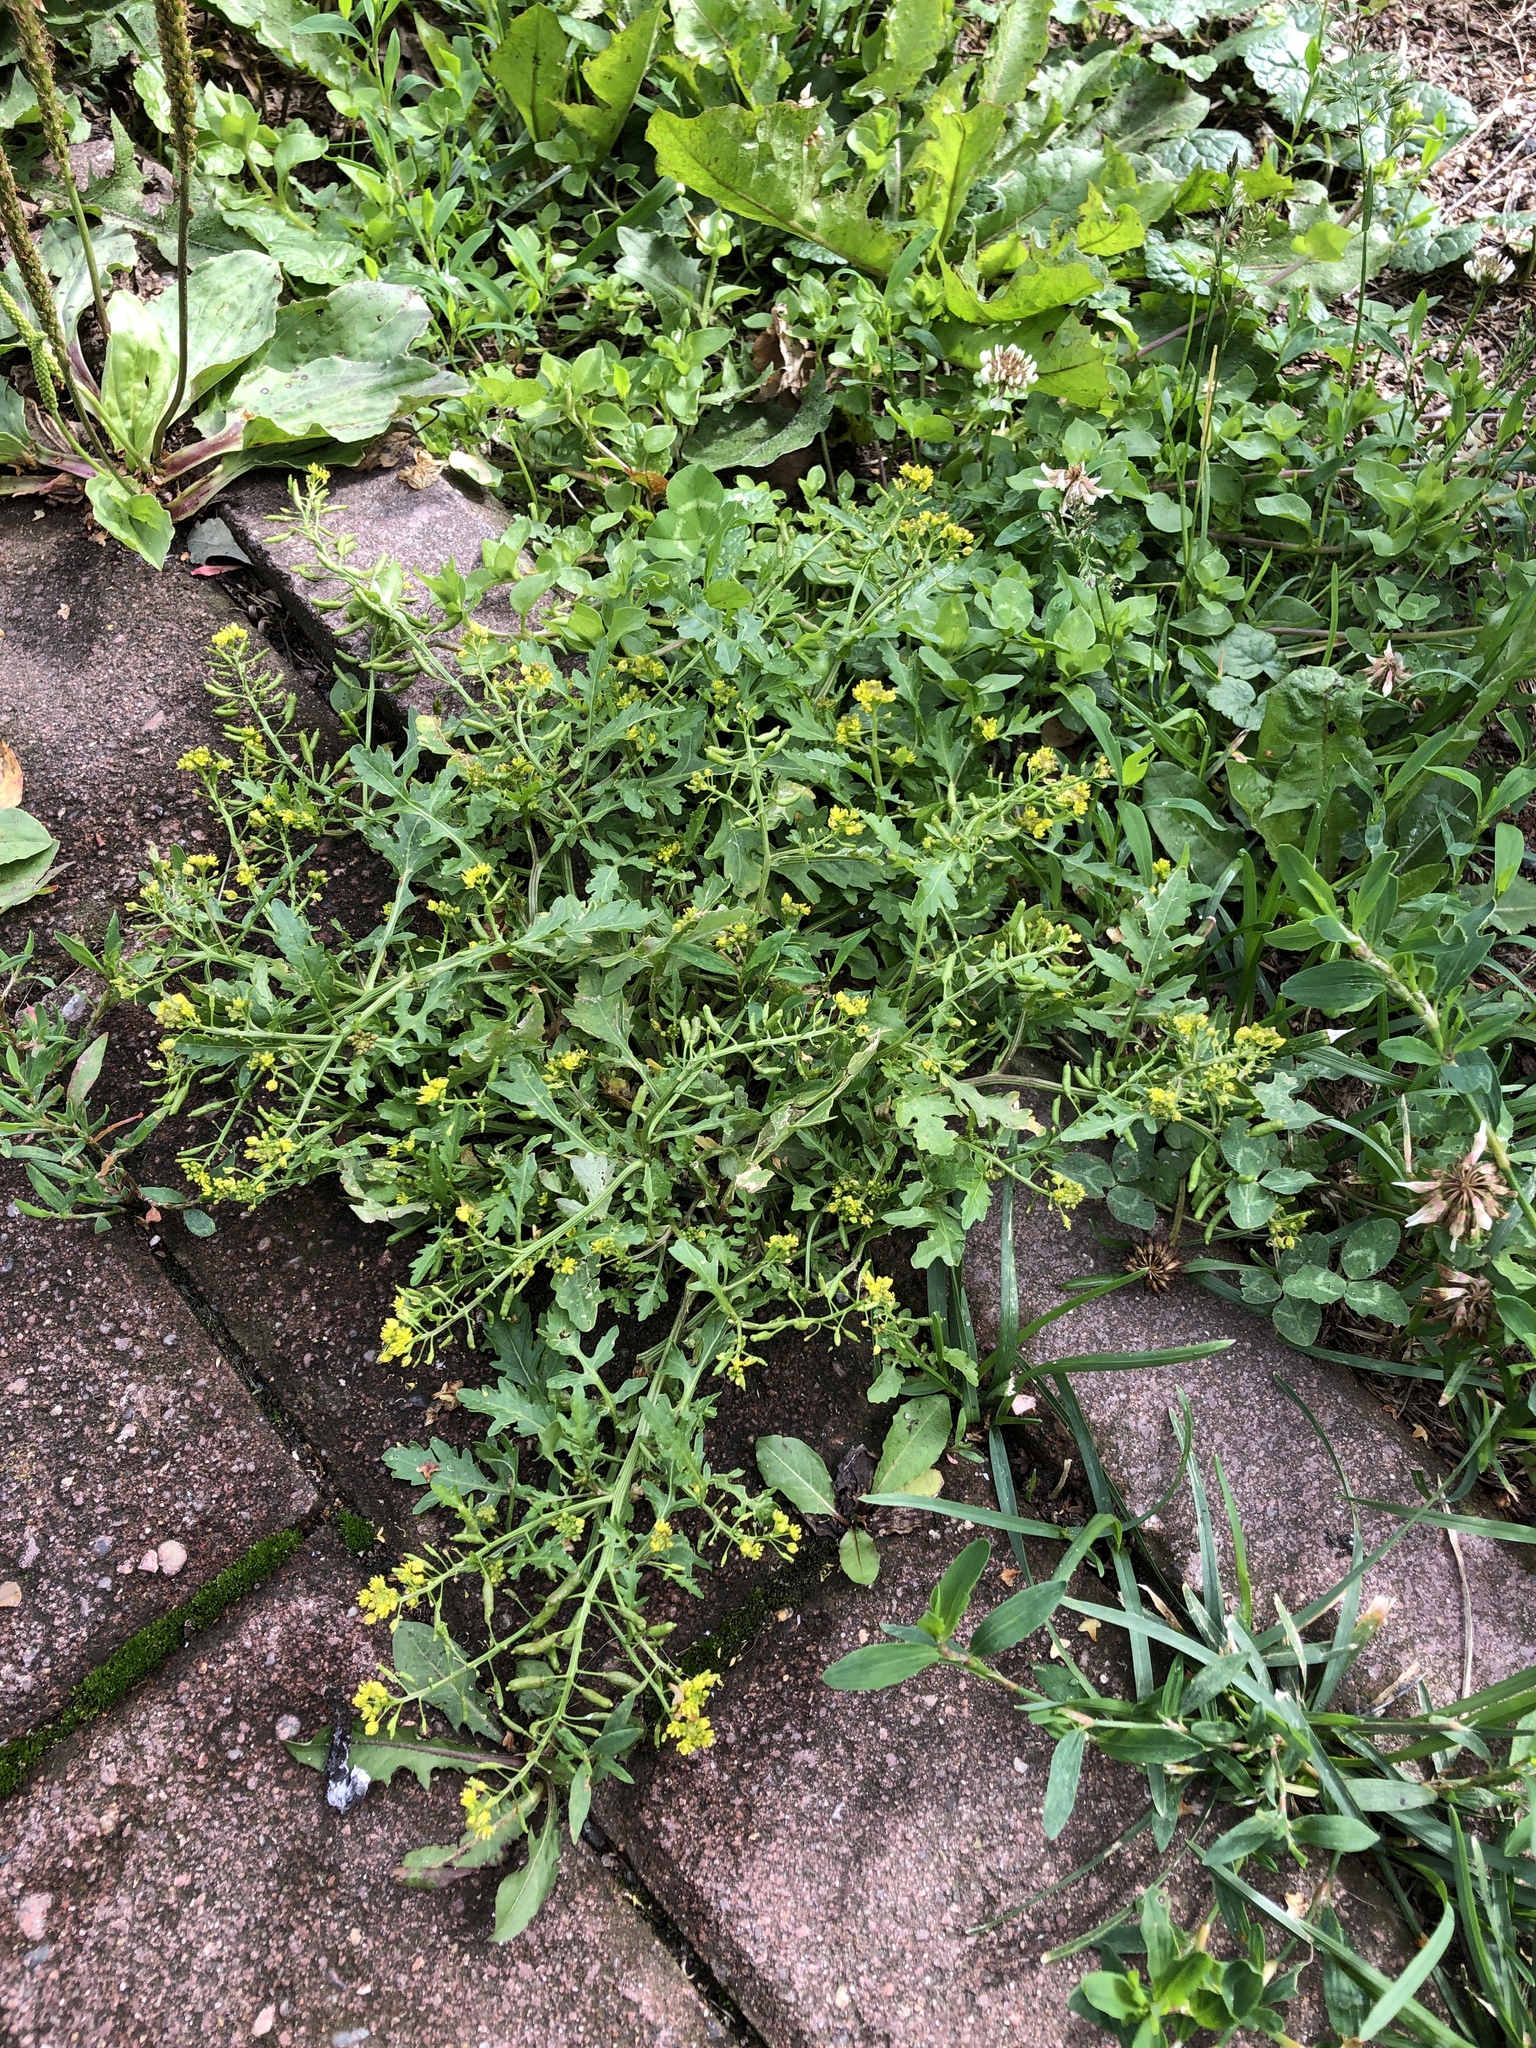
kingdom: Plantae
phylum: Tracheophyta
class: Magnoliopsida
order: Brassicales
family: Brassicaceae
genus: Rorippa
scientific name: Rorippa palustris
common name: Marsh yellow-cress
